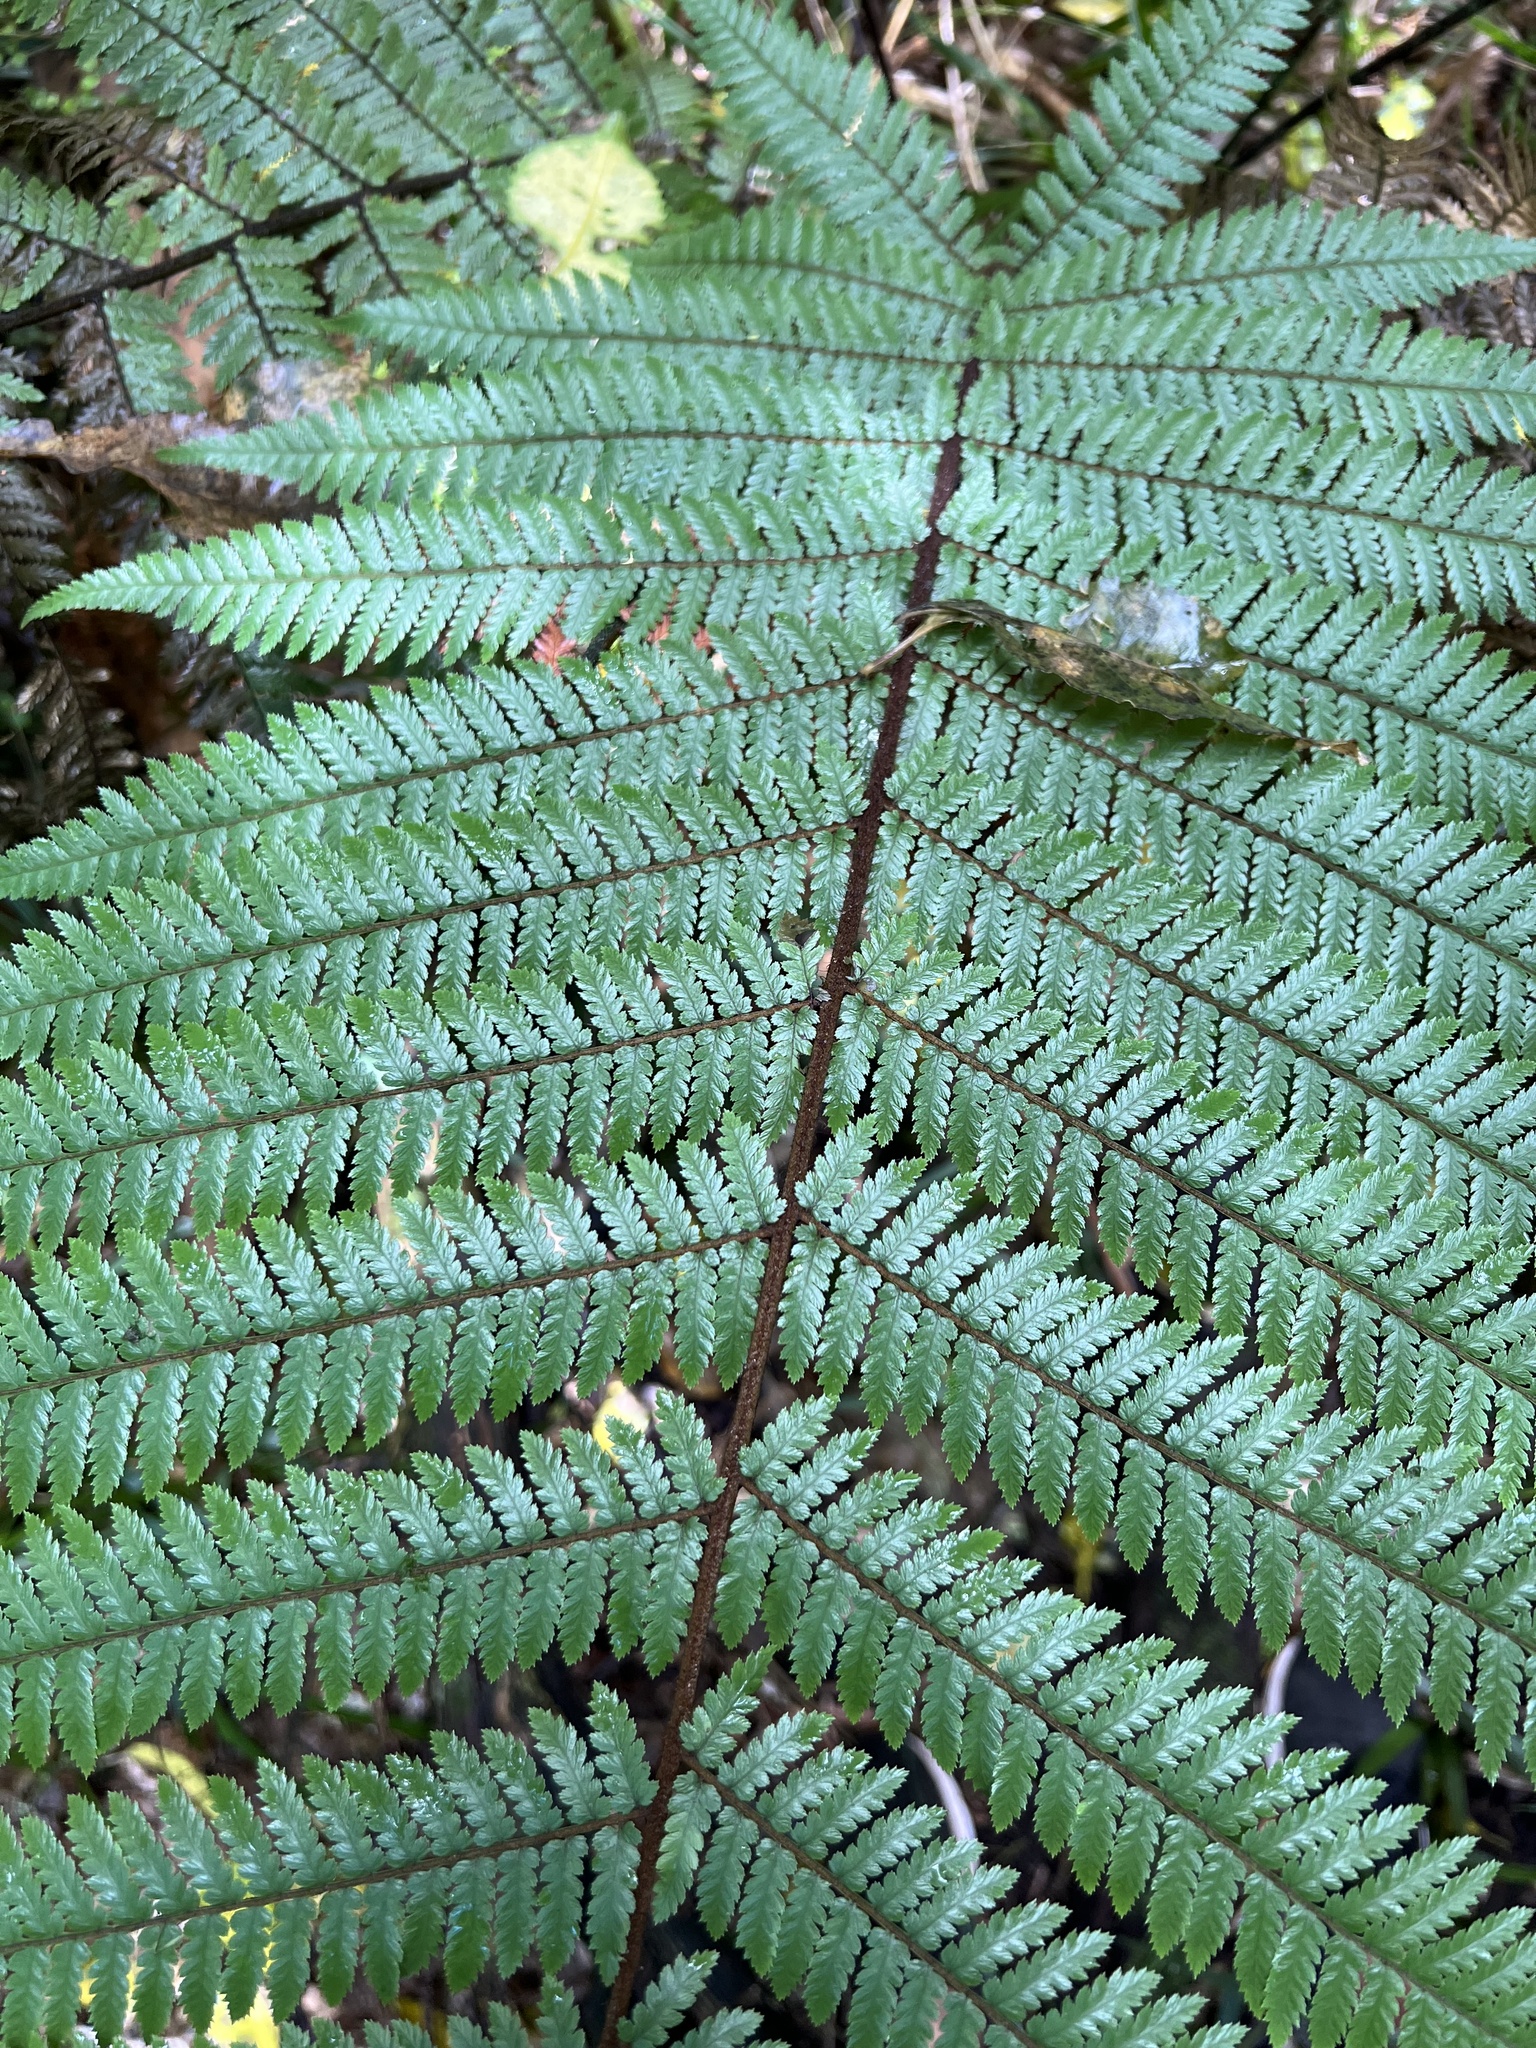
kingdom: Plantae
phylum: Tracheophyta
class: Polypodiopsida
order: Cyatheales
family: Dicksoniaceae
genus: Dicksonia
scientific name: Dicksonia squarrosa
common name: Hard treefern
